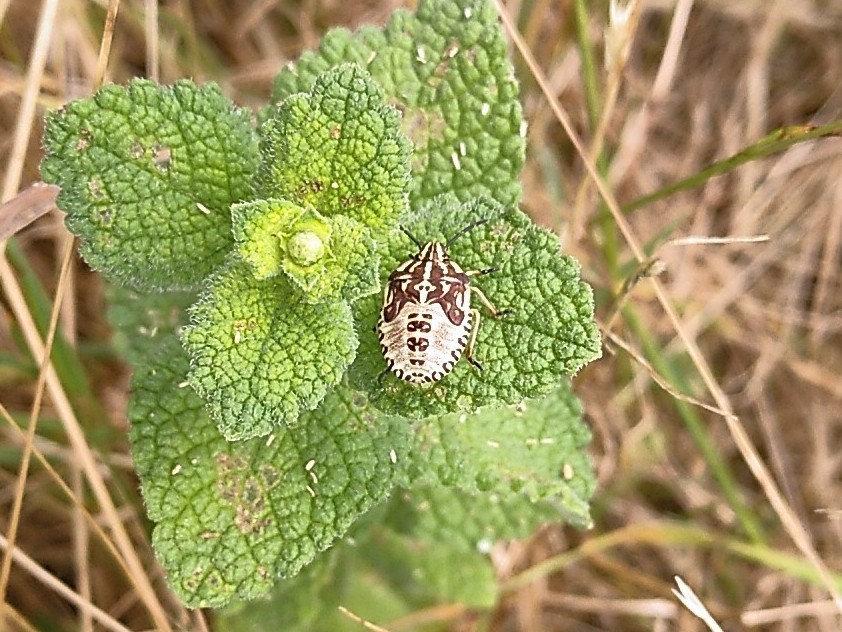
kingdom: Animalia
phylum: Arthropoda
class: Insecta
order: Hemiptera
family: Pentatomidae
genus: Carpocoris
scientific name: Carpocoris purpureipennis
